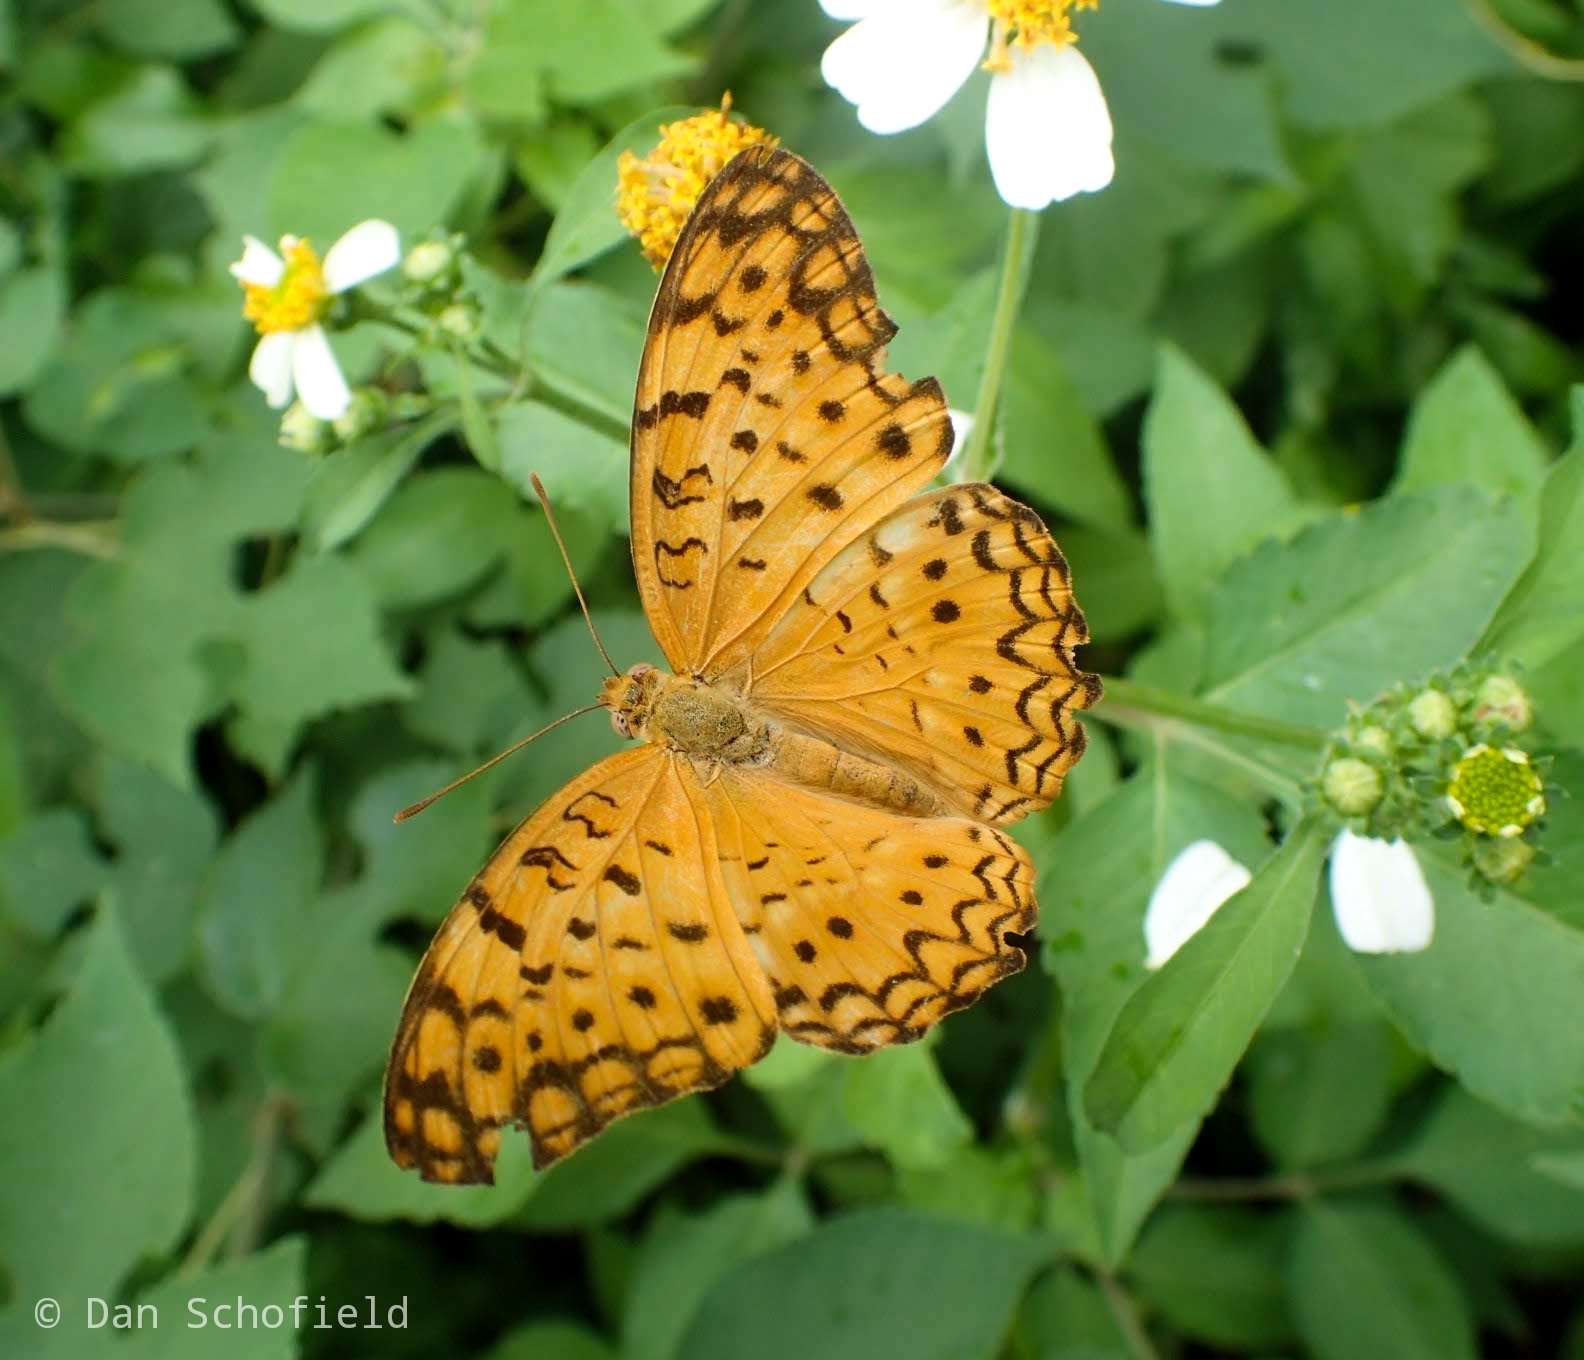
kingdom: Animalia
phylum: Arthropoda
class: Insecta
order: Lepidoptera
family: Nymphalidae
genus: Phalanta
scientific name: Phalanta phalantha
